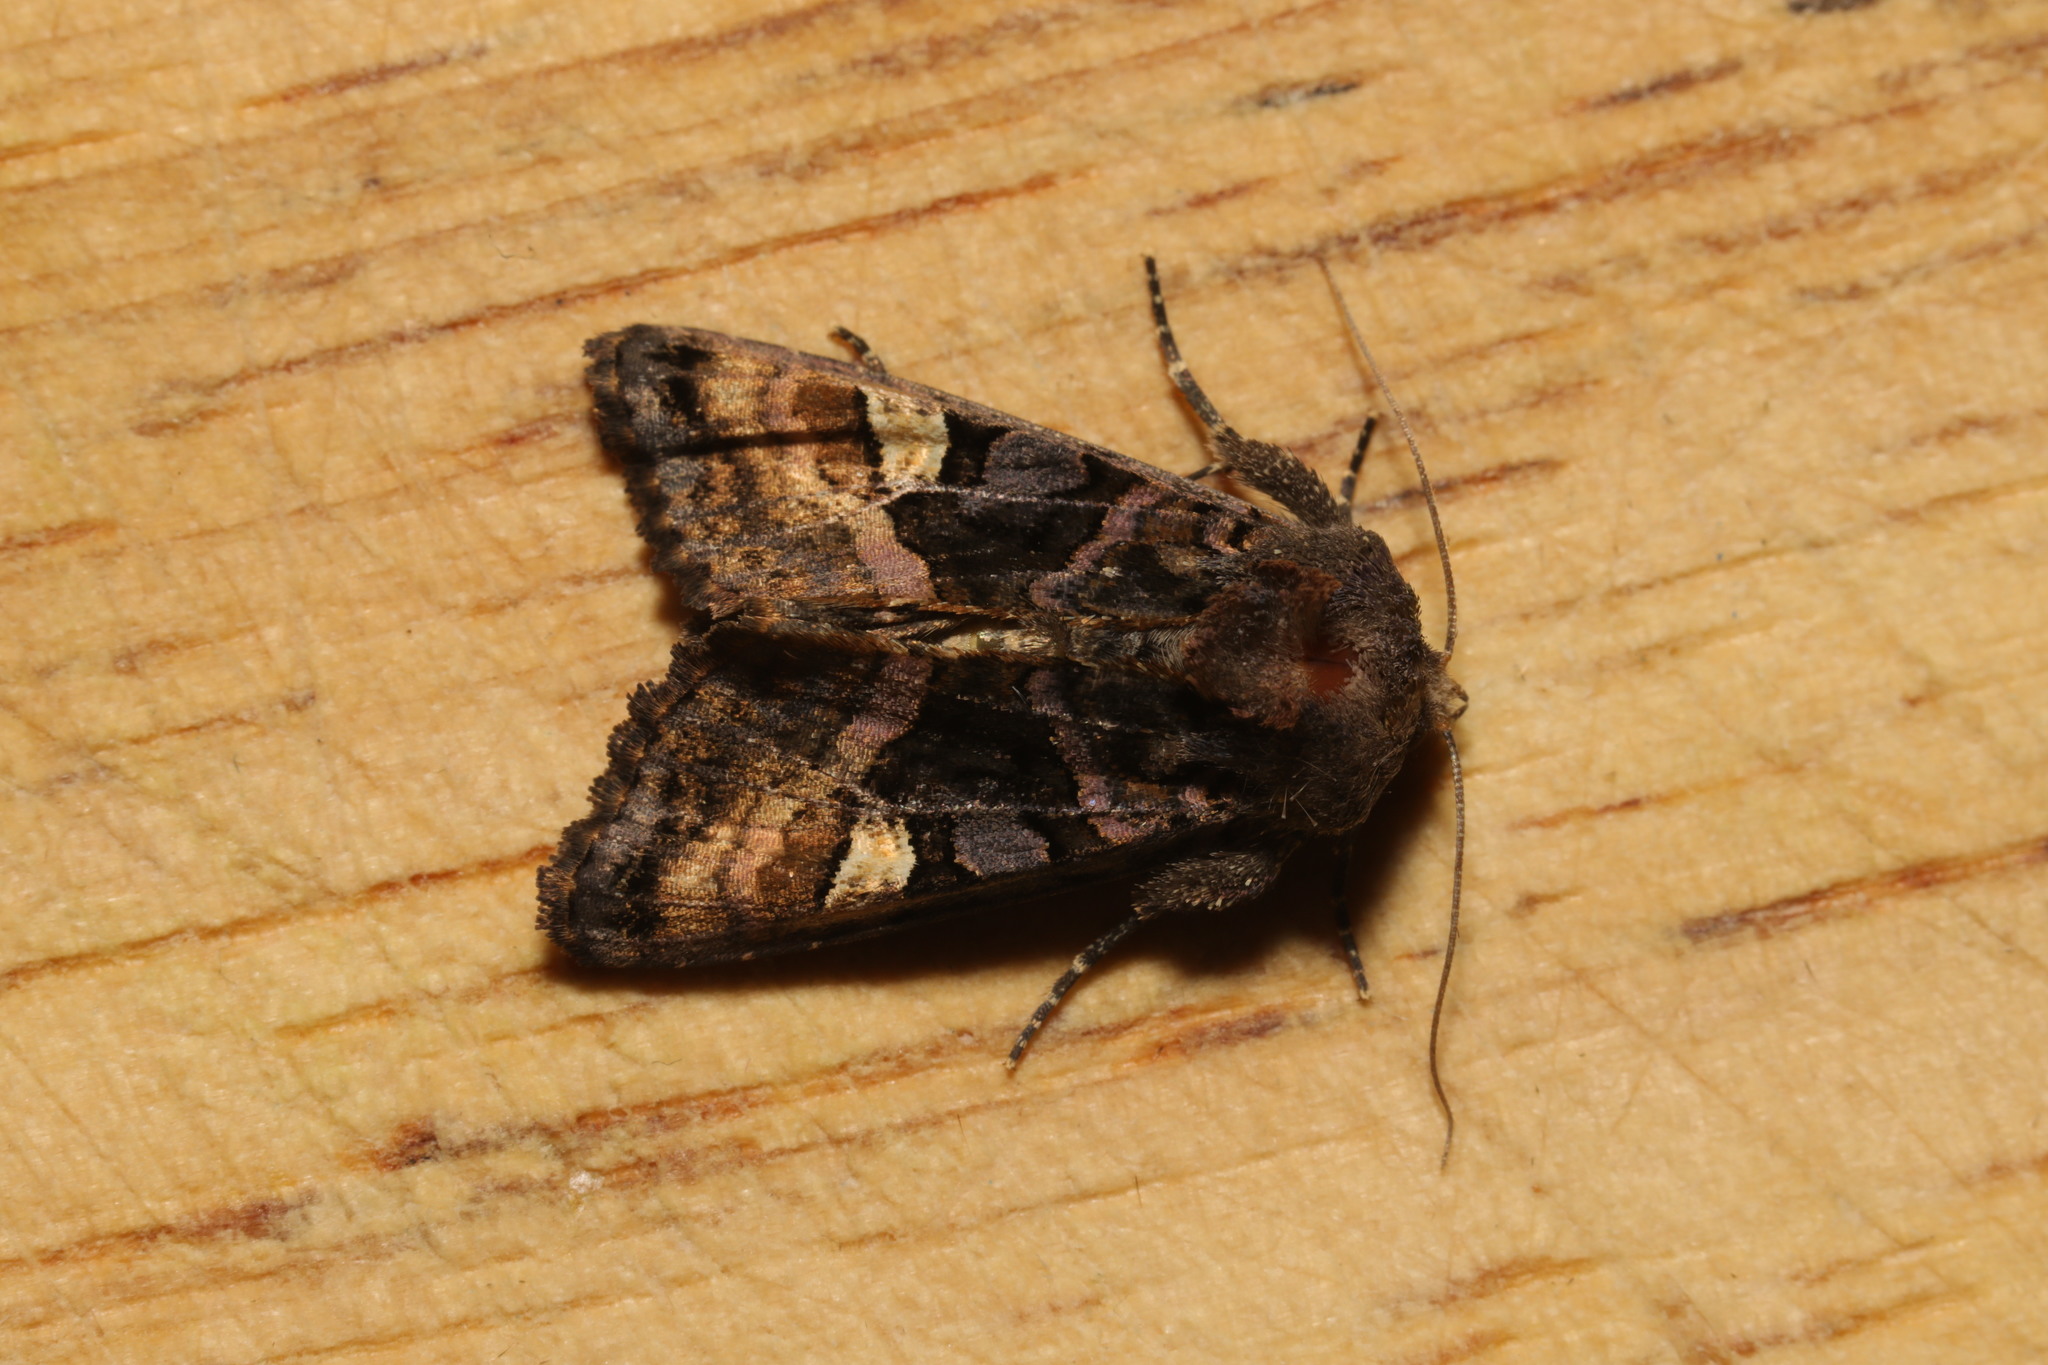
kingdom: Animalia
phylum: Arthropoda
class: Insecta
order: Lepidoptera
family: Noctuidae
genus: Euplexia
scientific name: Euplexia lucipara
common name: Small angle shades
